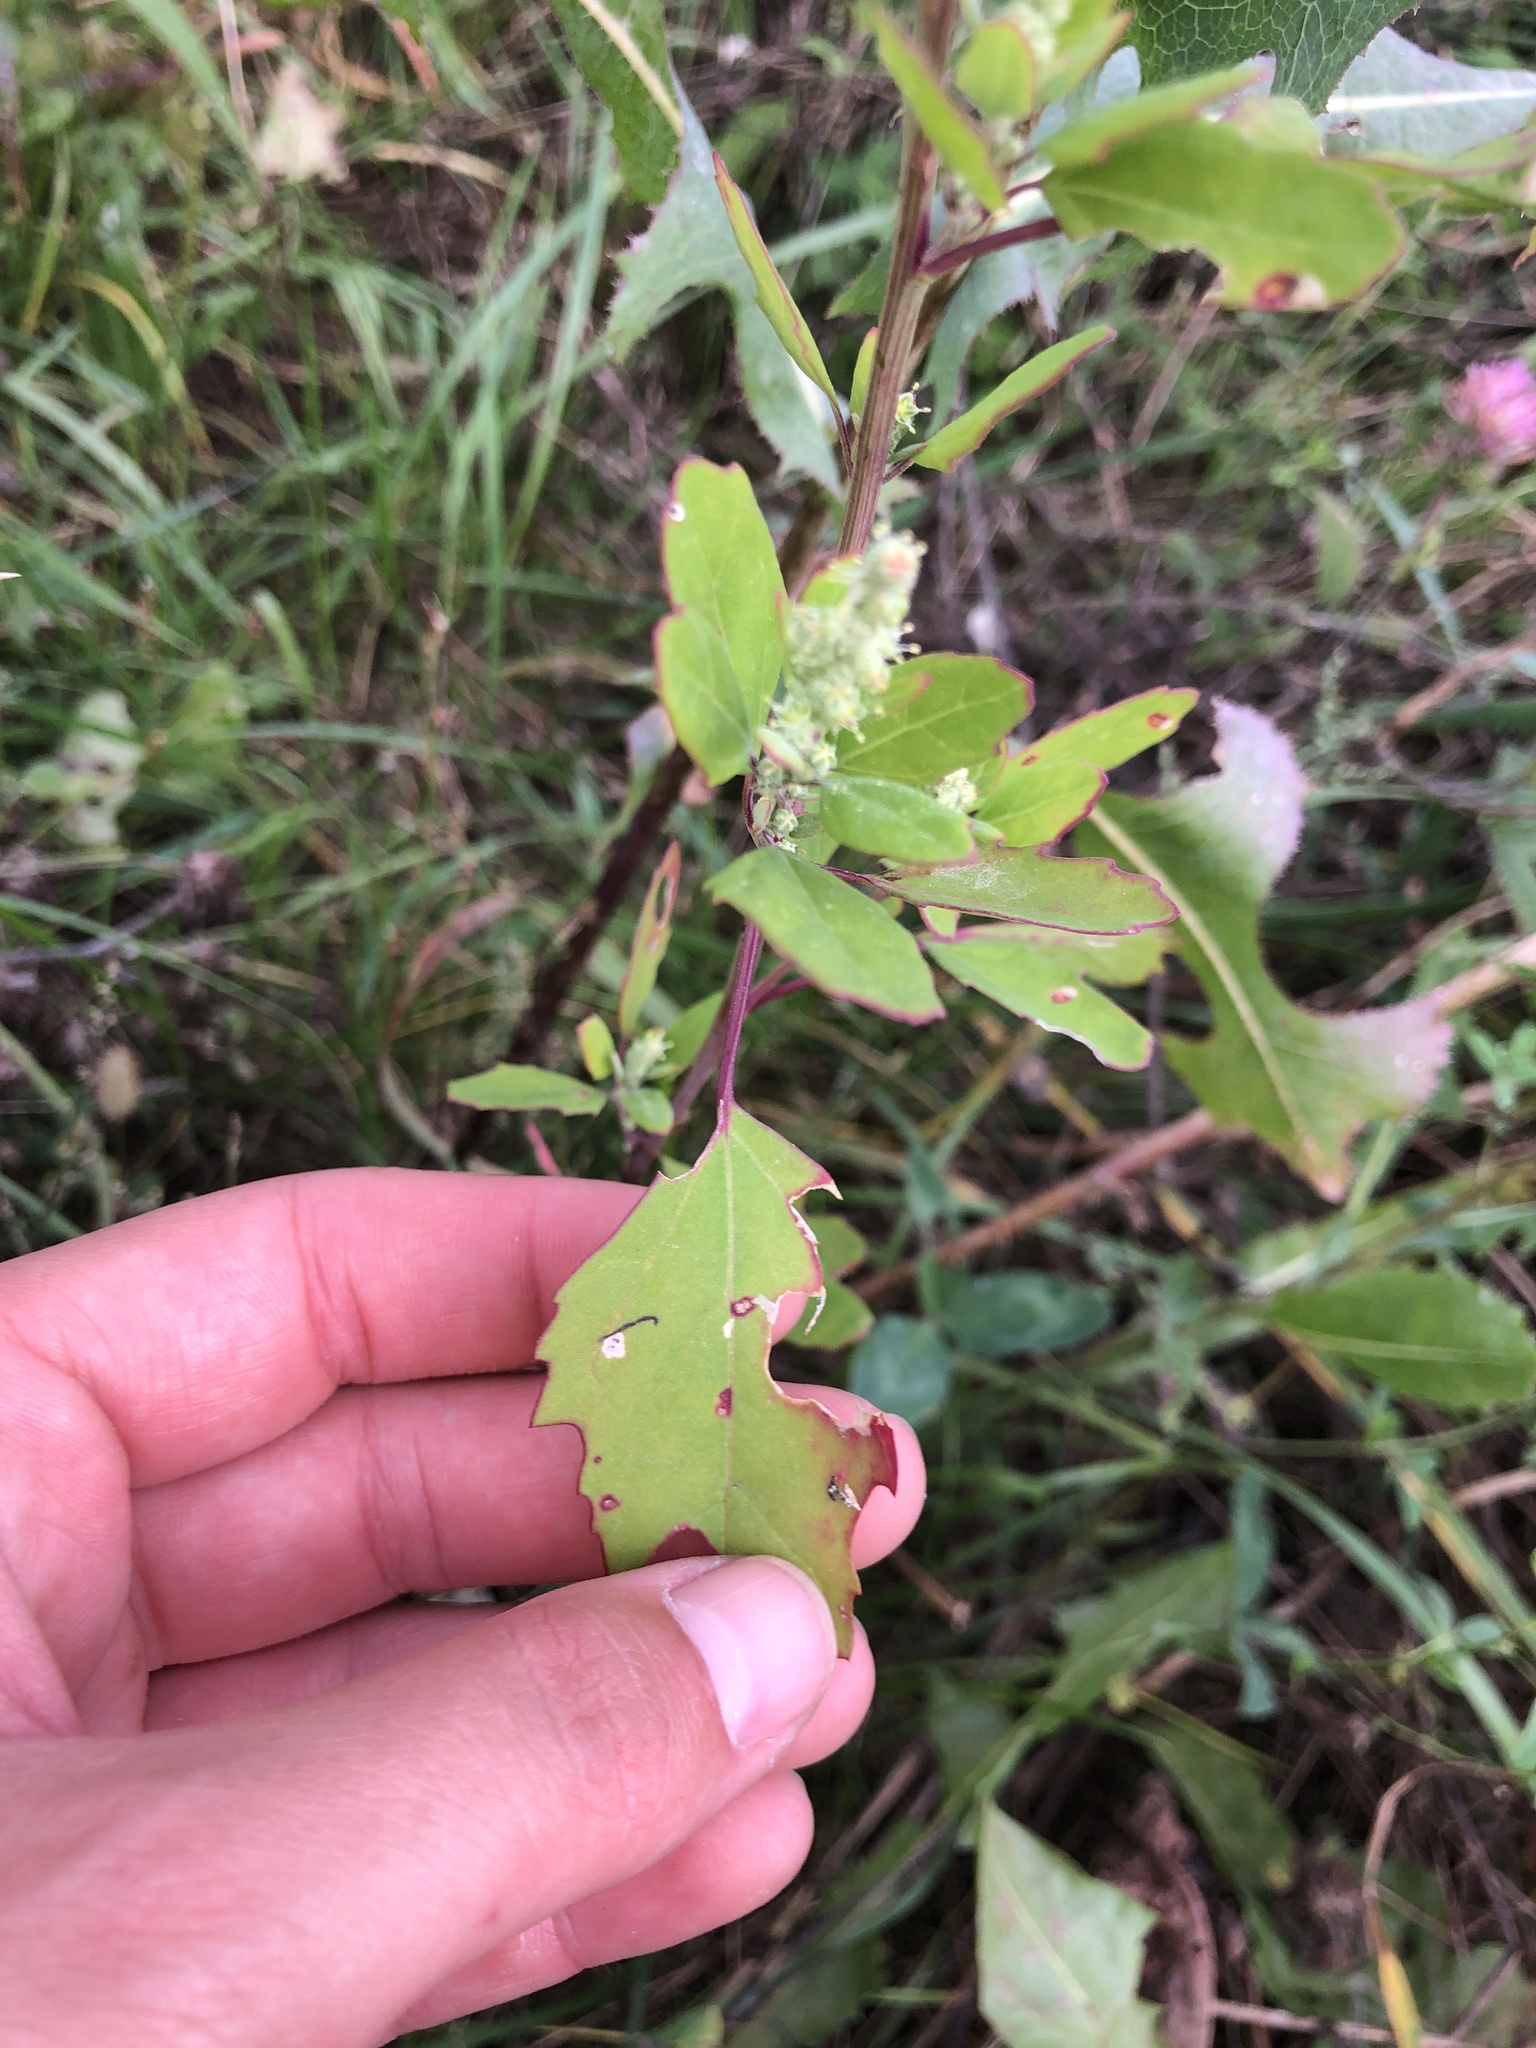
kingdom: Plantae
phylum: Tracheophyta
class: Magnoliopsida
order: Caryophyllales
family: Amaranthaceae
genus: Chenopodium
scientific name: Chenopodium album
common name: Fat-hen
